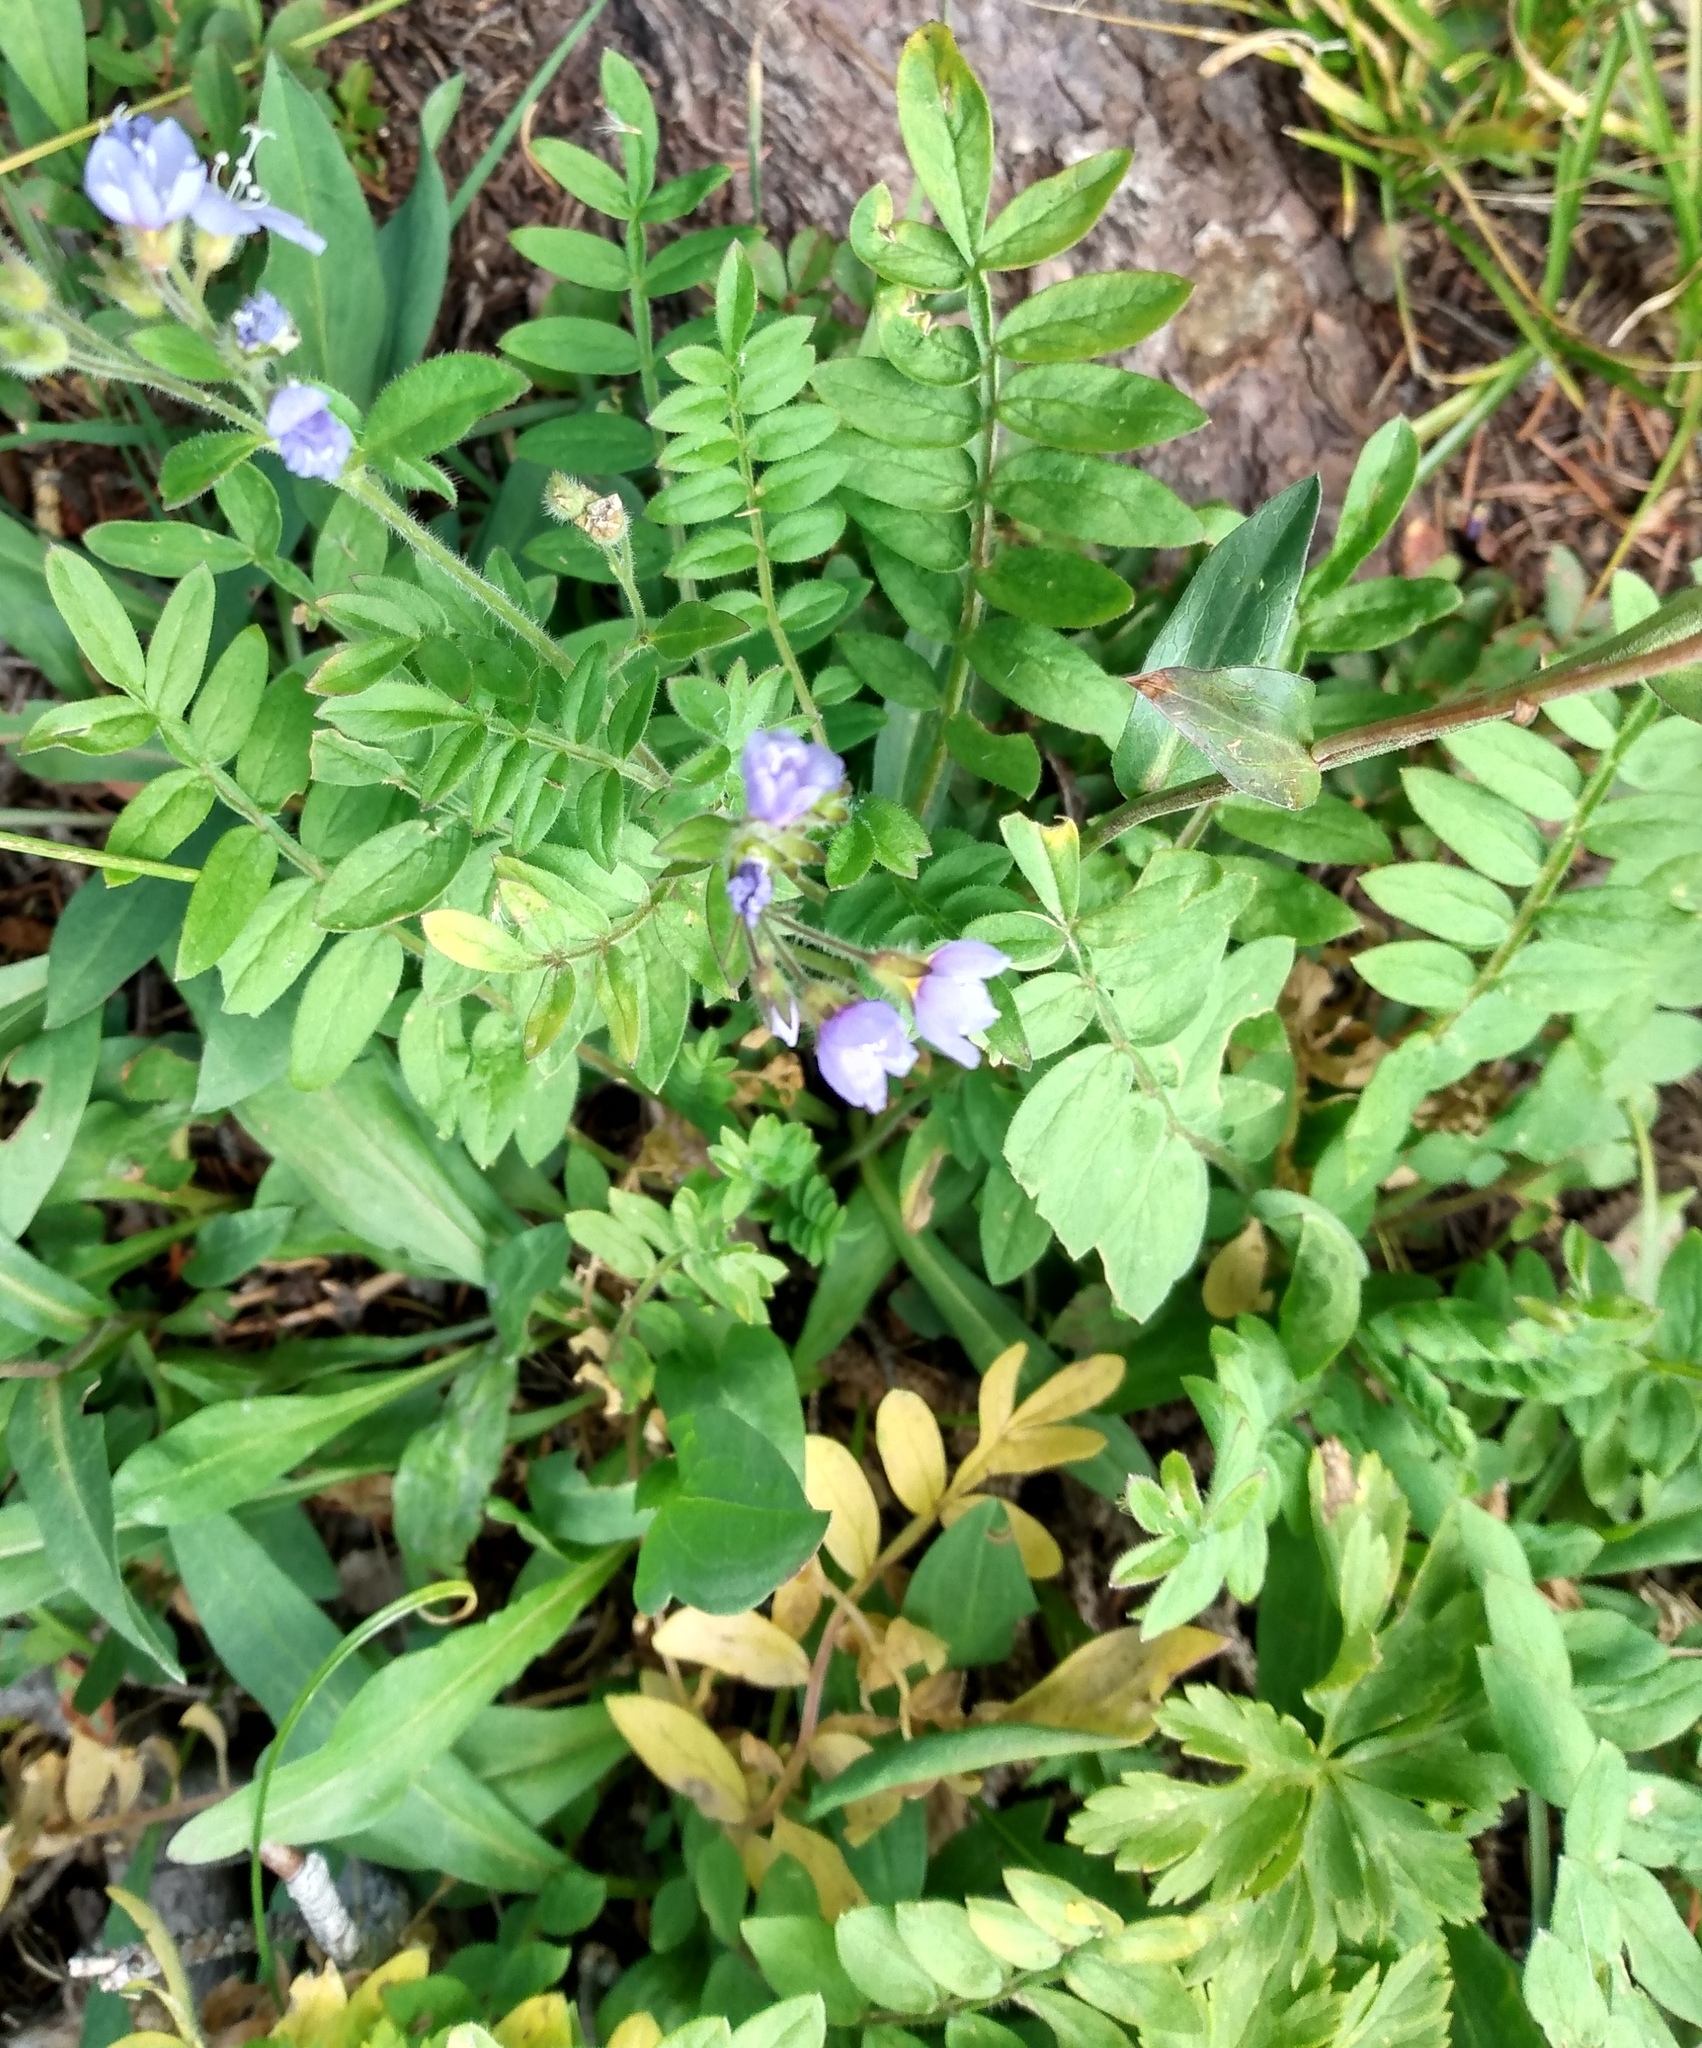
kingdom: Plantae
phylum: Tracheophyta
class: Magnoliopsida
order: Ericales
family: Polemoniaceae
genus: Polemonium
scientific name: Polemonium pulcherrimum
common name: Short jacob's-ladder
